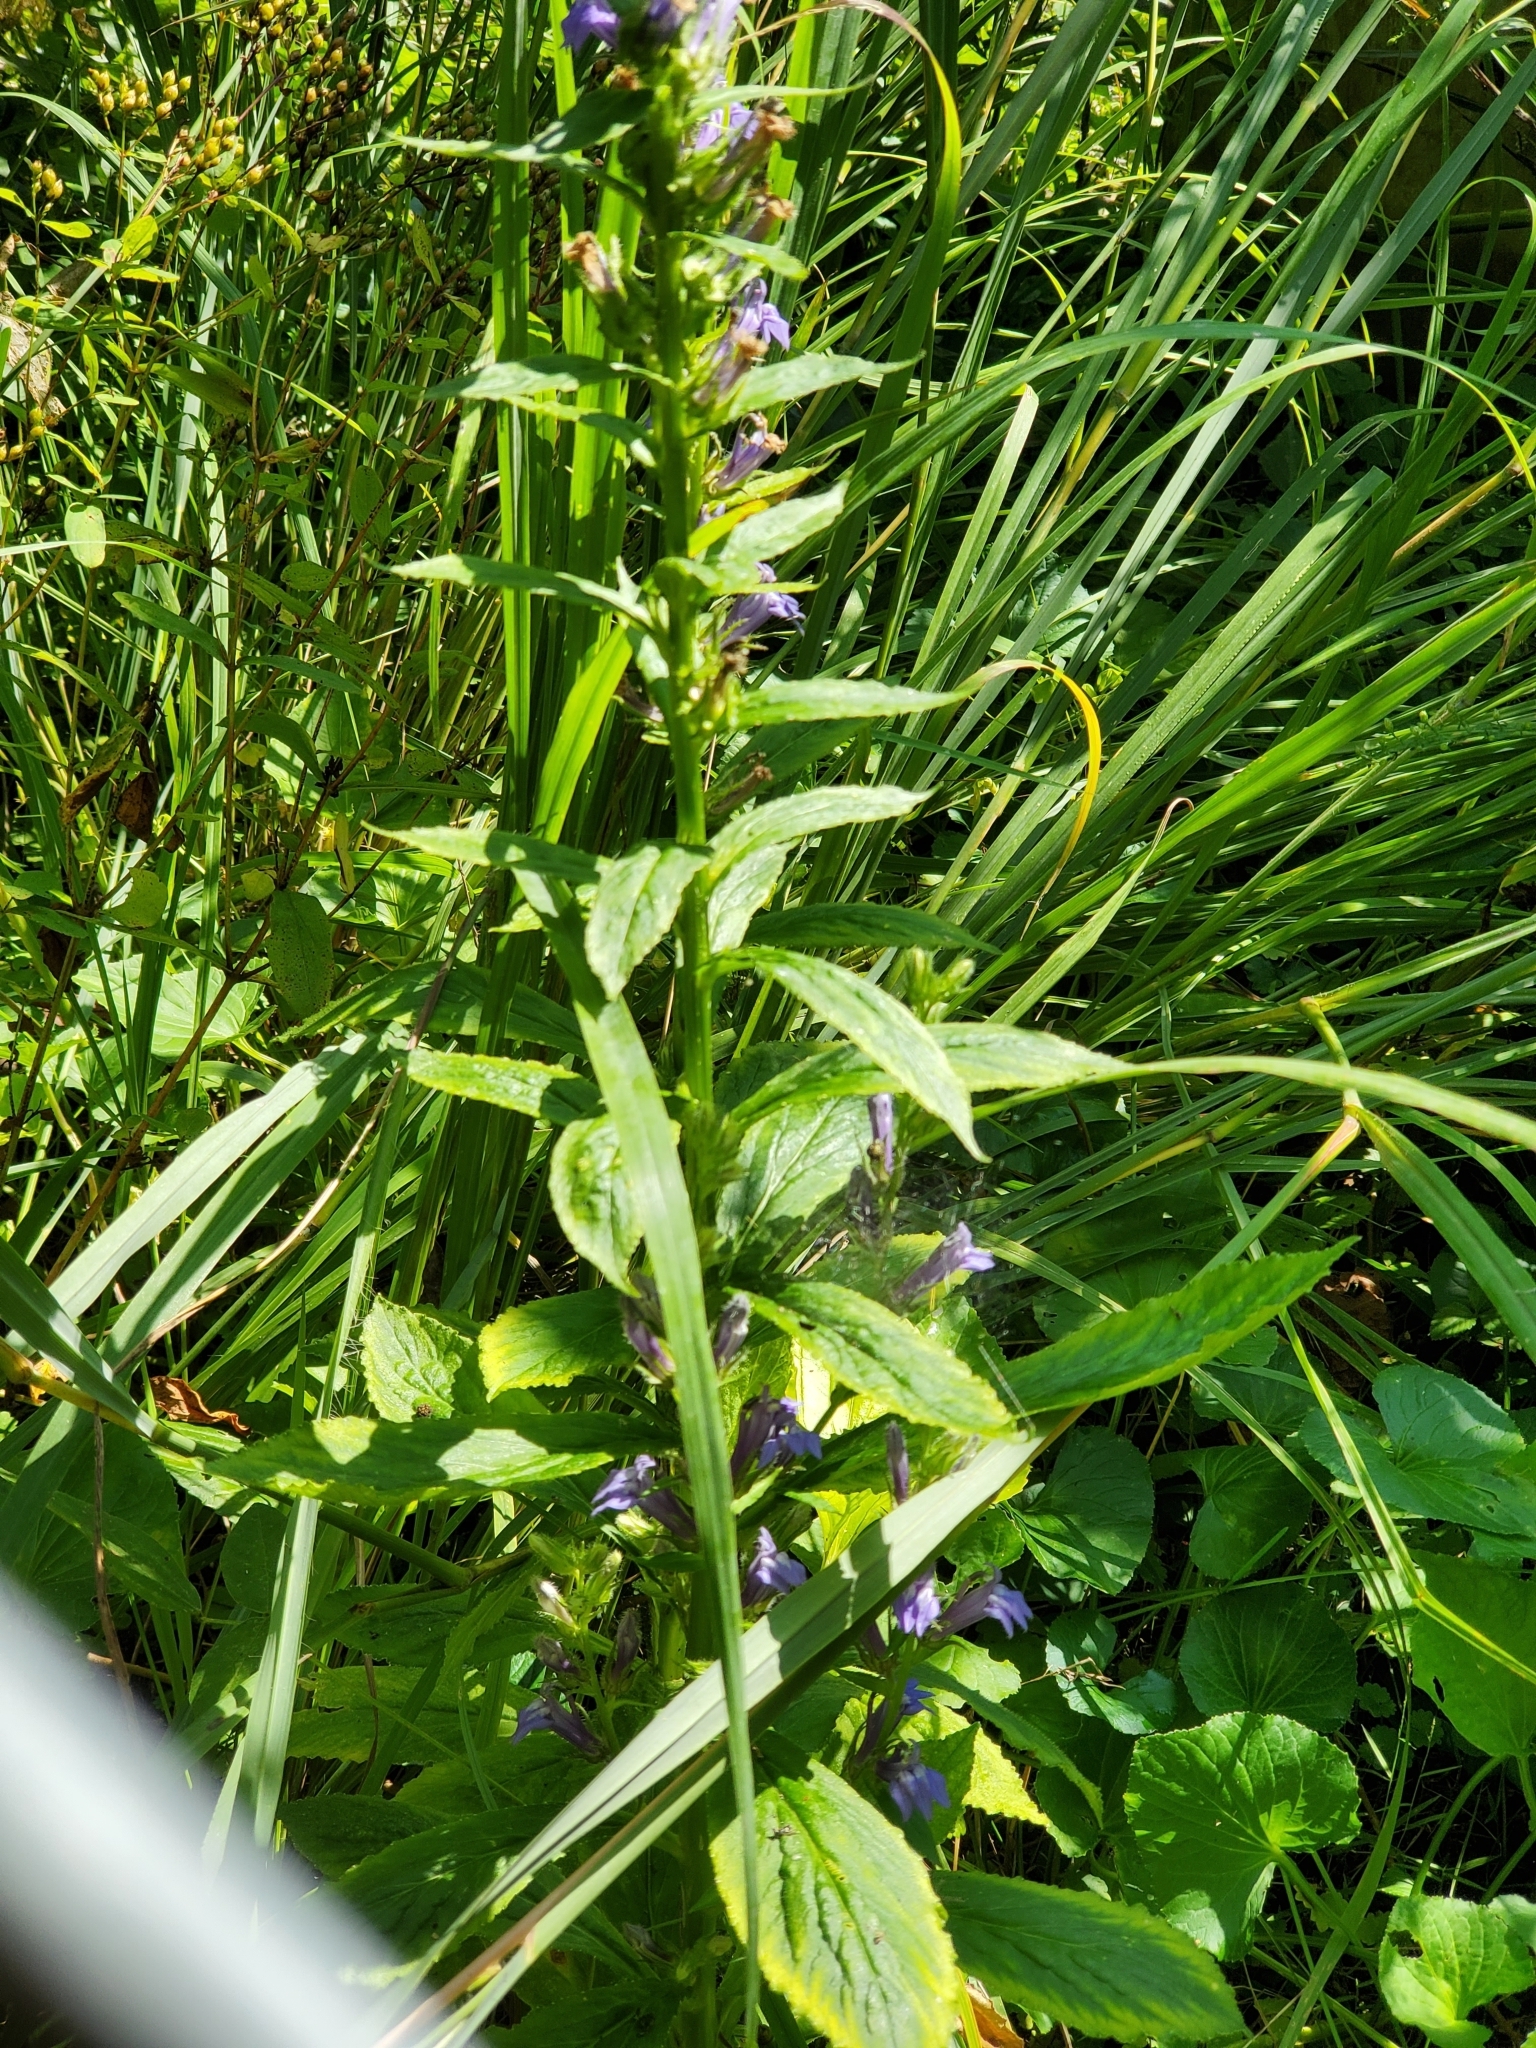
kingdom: Plantae
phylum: Tracheophyta
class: Magnoliopsida
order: Asterales
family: Campanulaceae
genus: Lobelia
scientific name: Lobelia siphilitica
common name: Great lobelia
